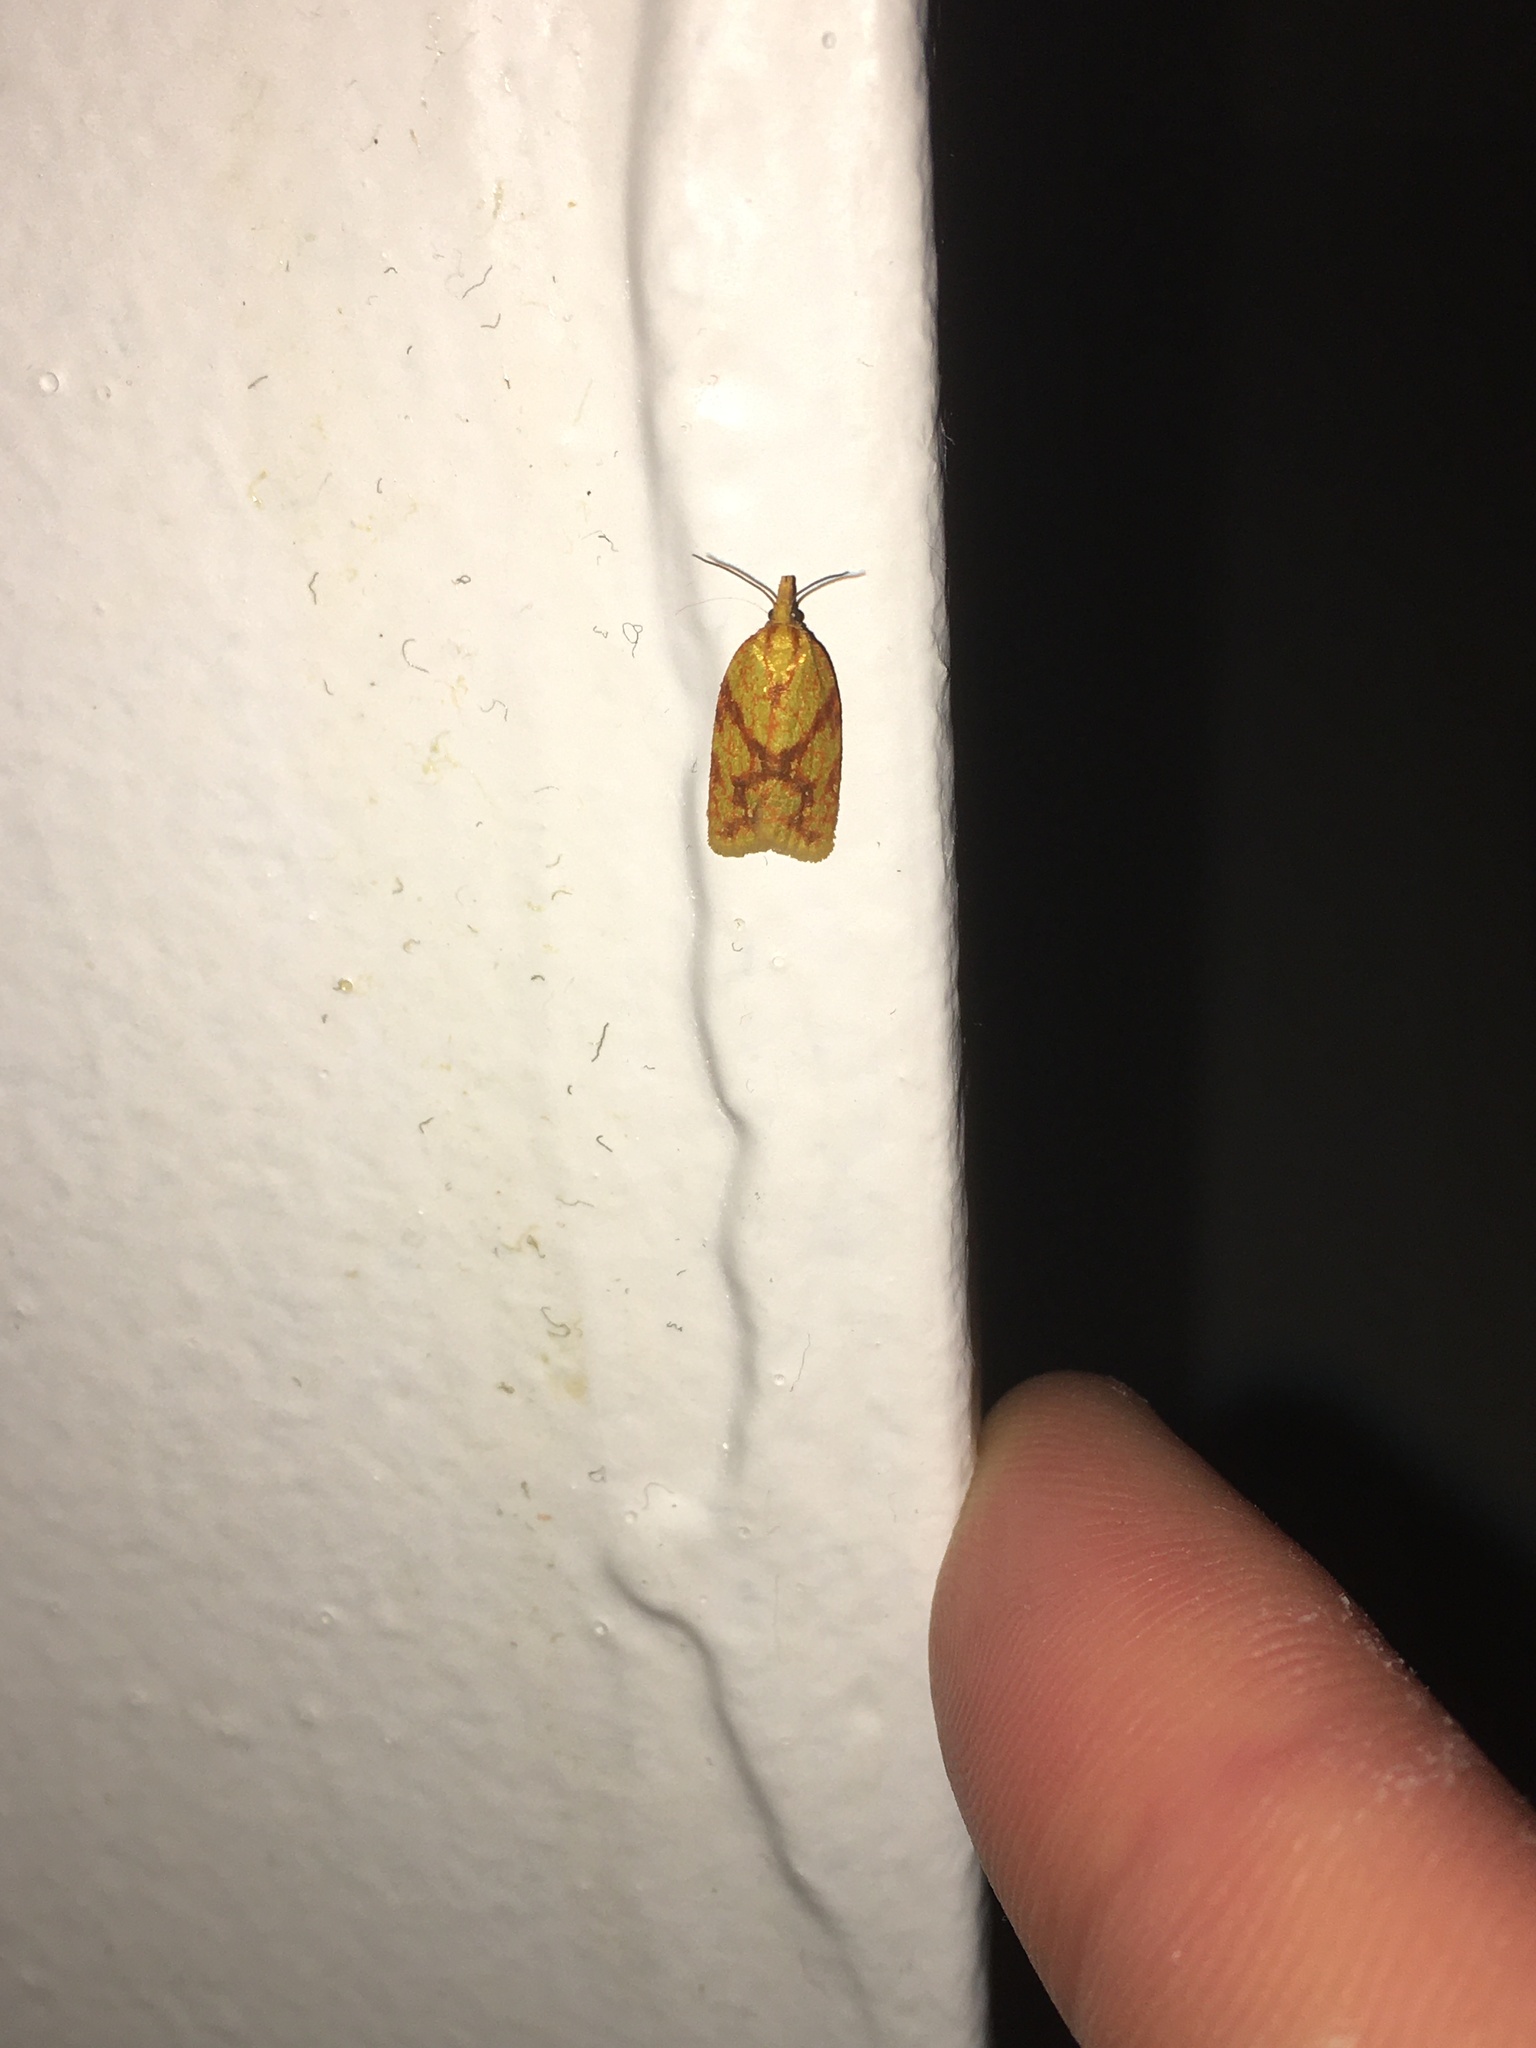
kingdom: Animalia
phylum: Arthropoda
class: Insecta
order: Lepidoptera
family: Tortricidae
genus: Sparganothis
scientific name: Sparganothis sulfureana
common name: Sparganothis fruitworm moth
